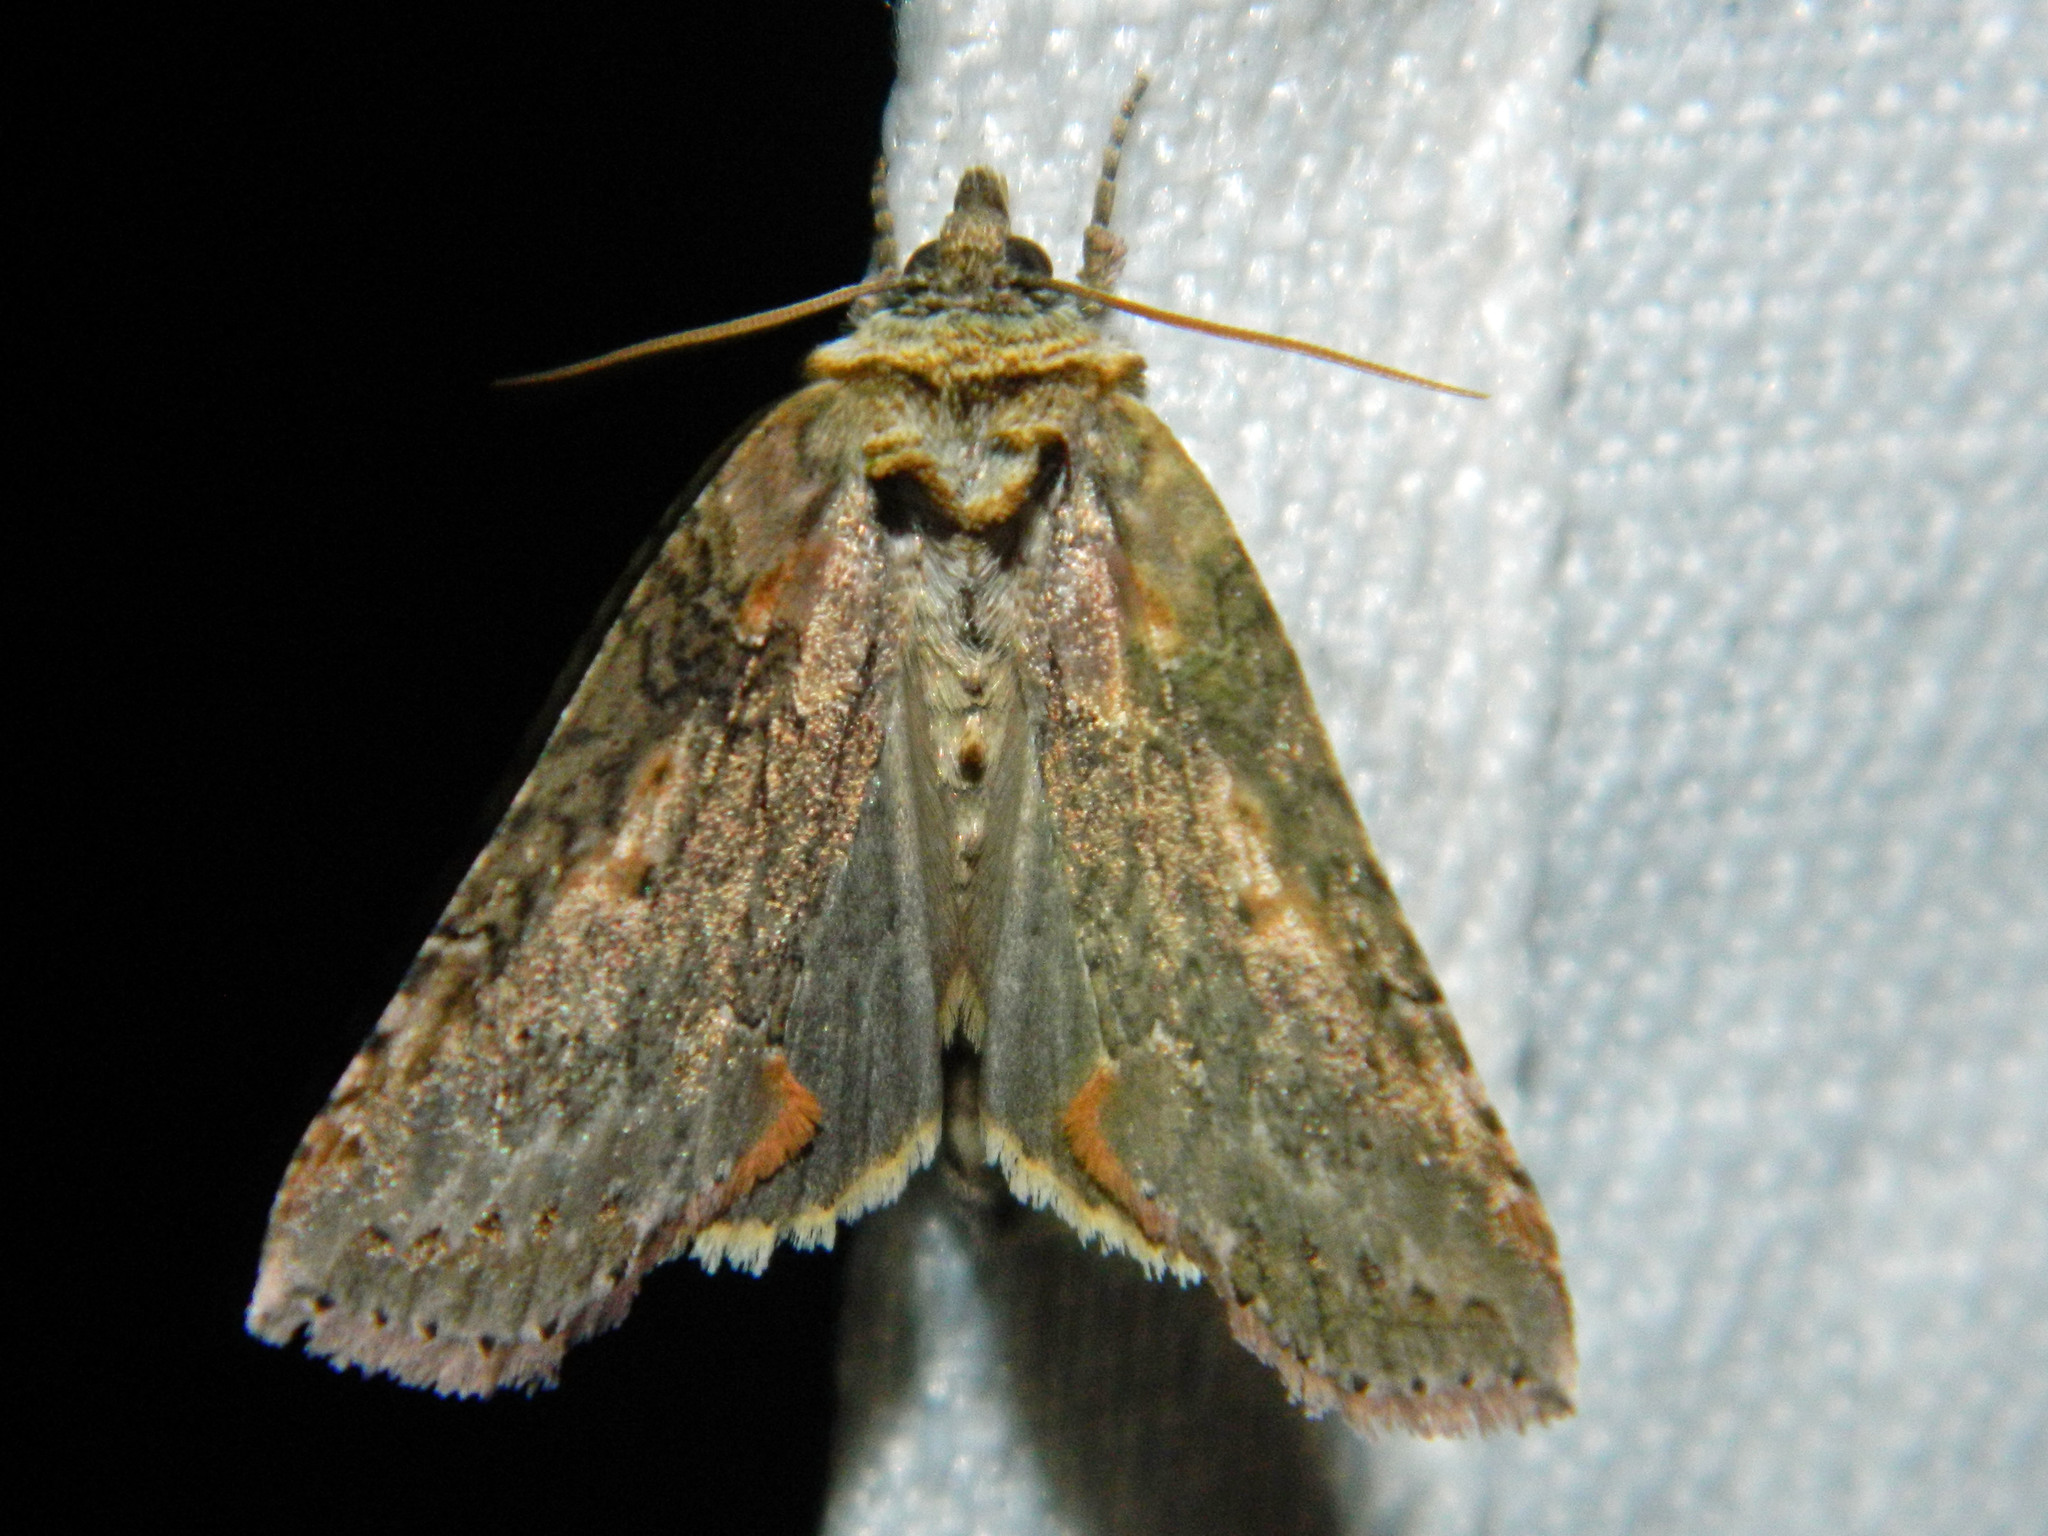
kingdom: Animalia
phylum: Arthropoda
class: Insecta
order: Lepidoptera
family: Drepanidae
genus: Pseudothyatira
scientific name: Pseudothyatira cymatophoroides
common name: Tufted thyatirid moth
